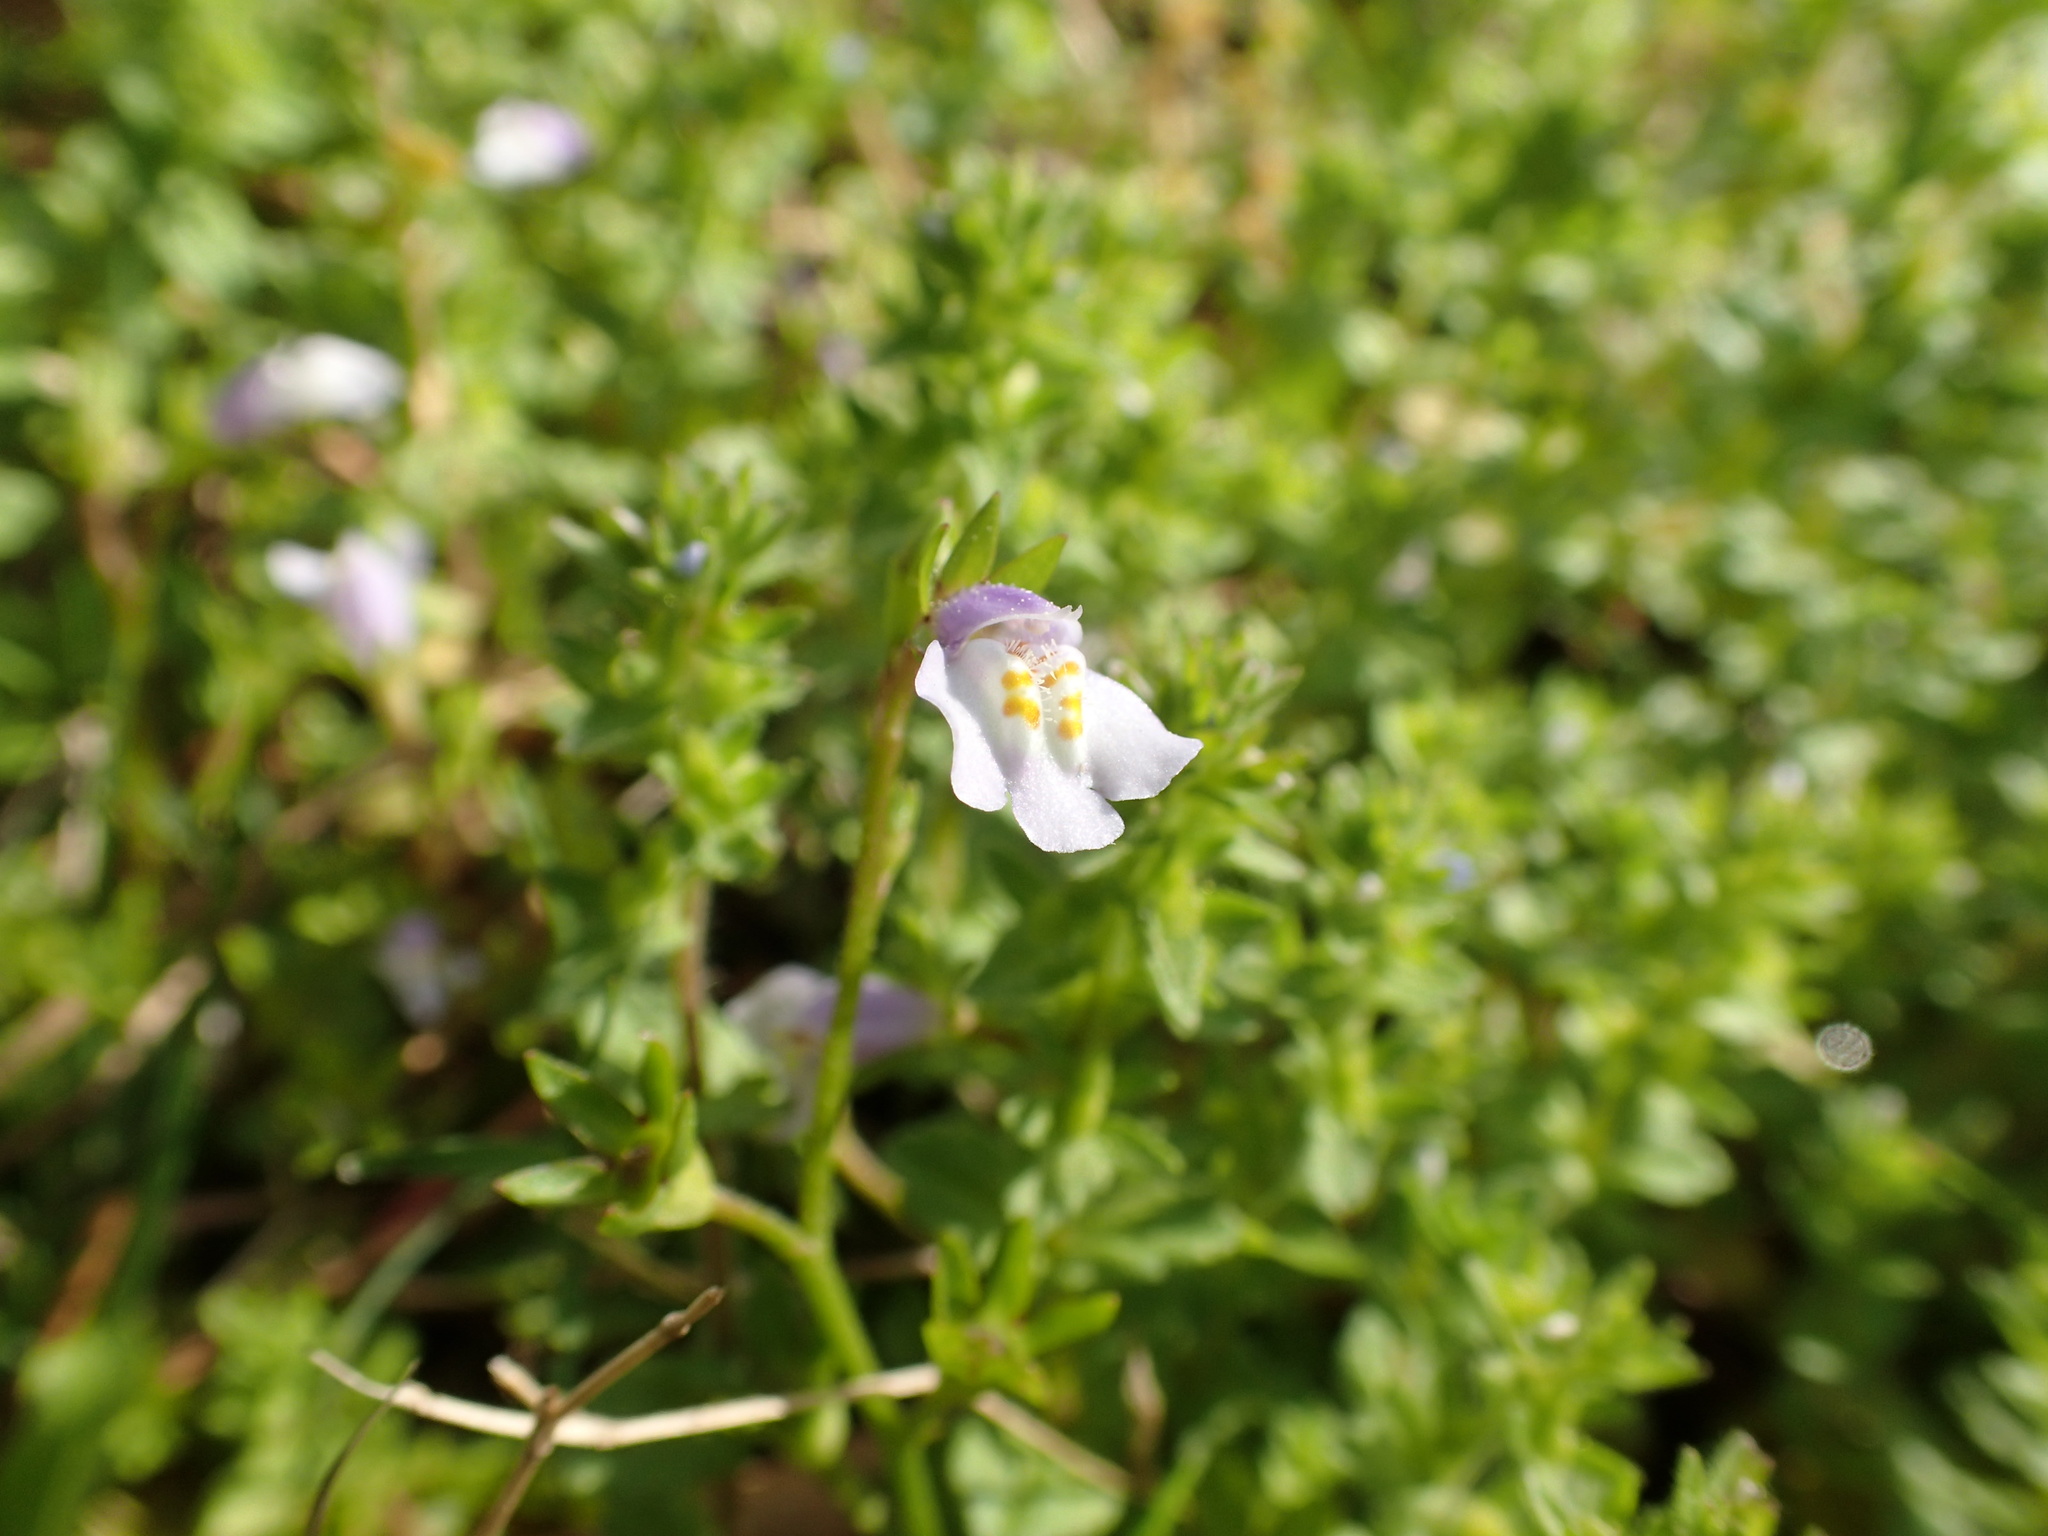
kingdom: Plantae
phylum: Tracheophyta
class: Magnoliopsida
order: Lamiales
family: Mazaceae
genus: Mazus
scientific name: Mazus pumilus
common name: Japanese mazus
